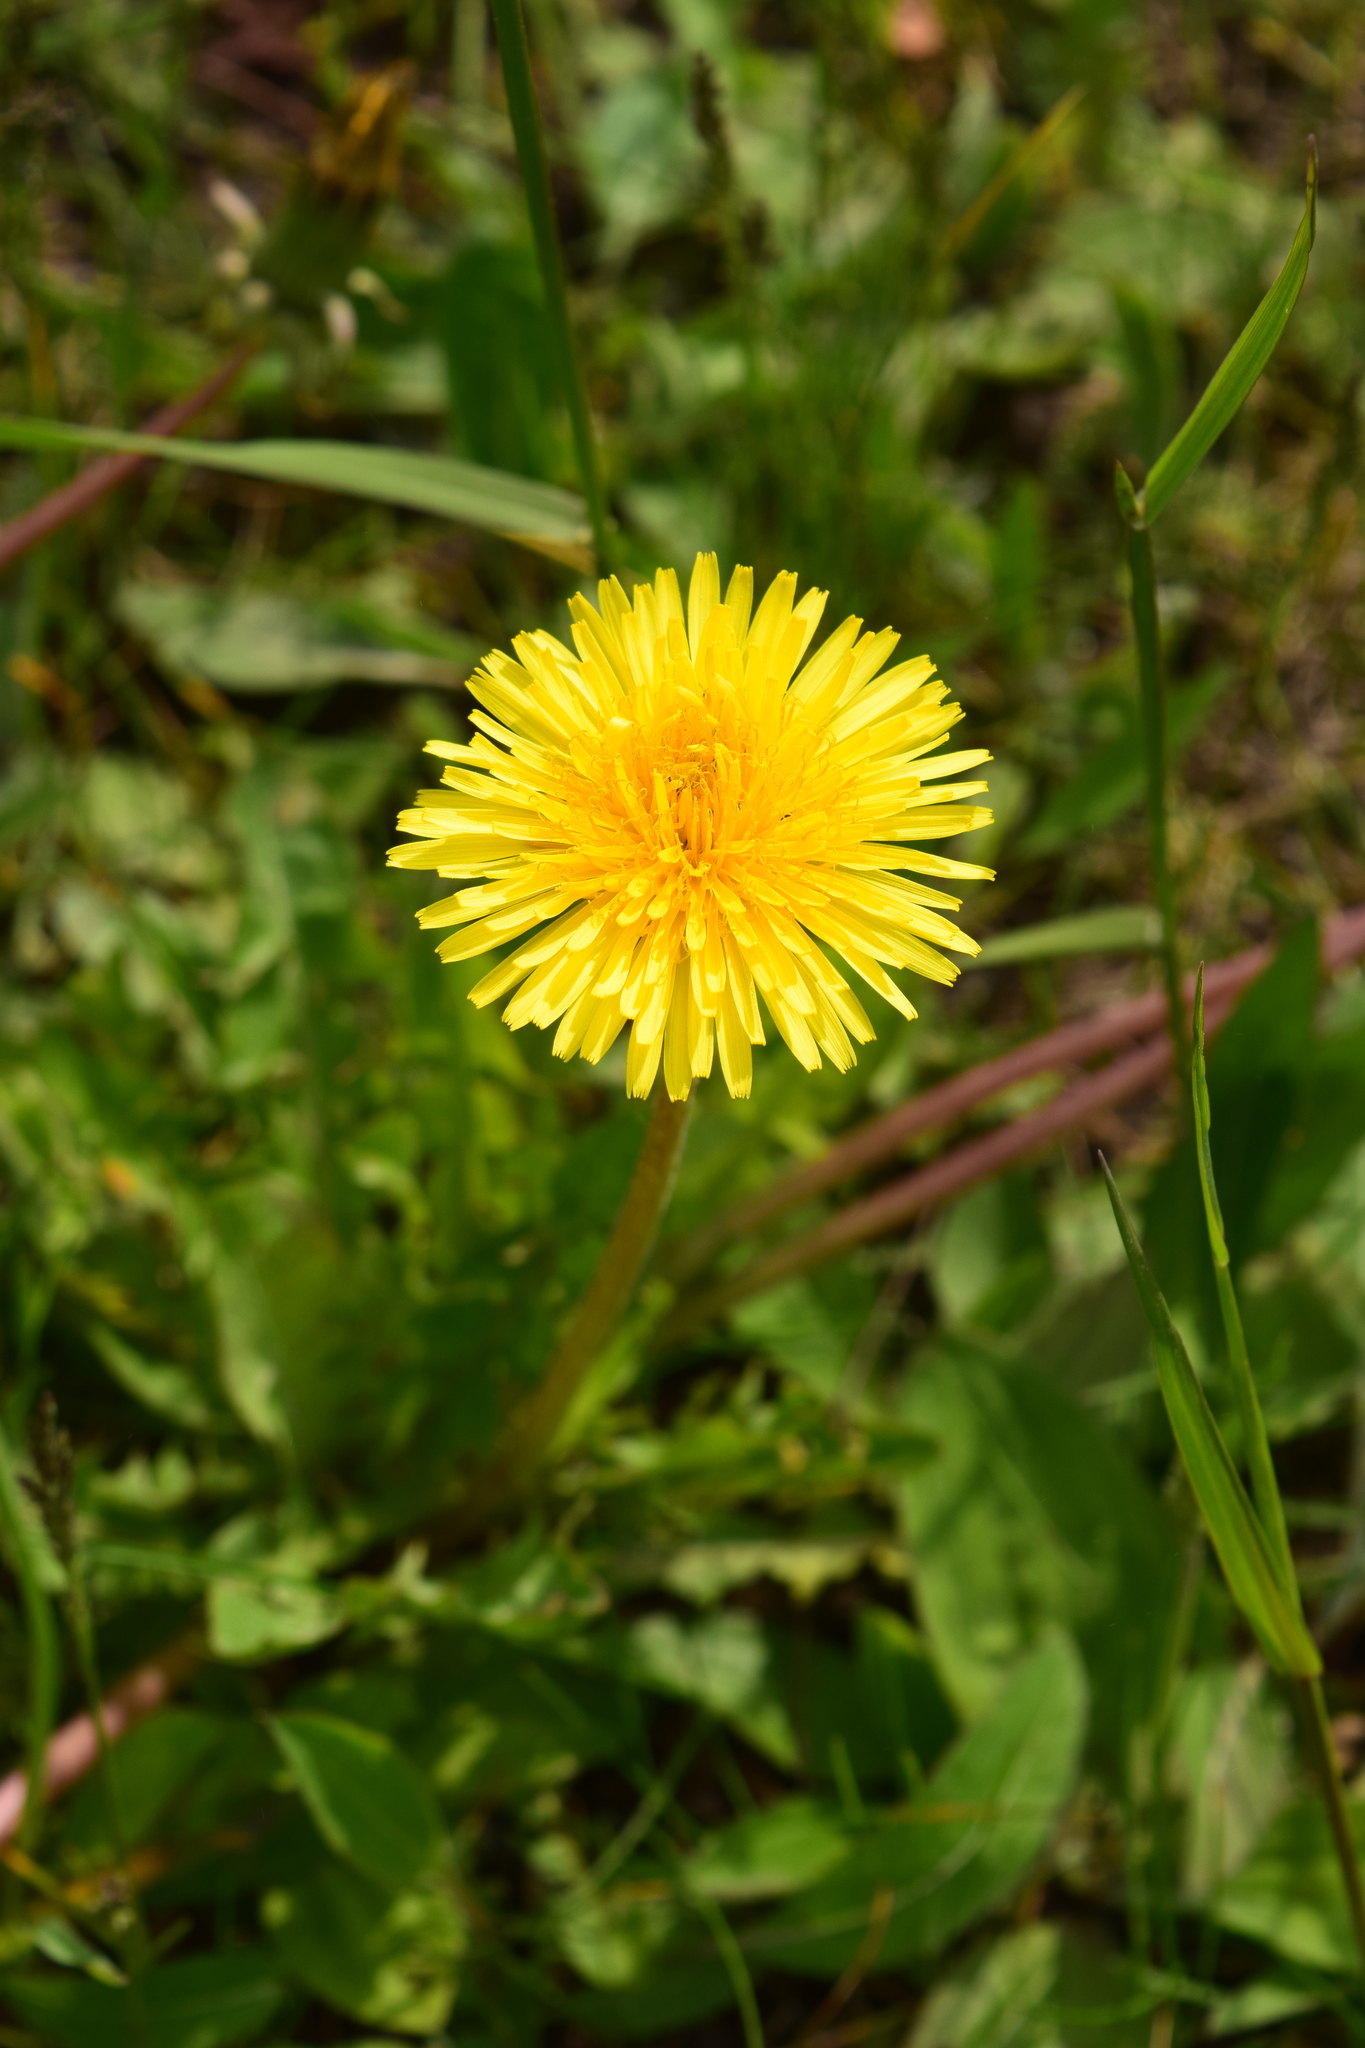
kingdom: Plantae
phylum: Tracheophyta
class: Magnoliopsida
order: Asterales
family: Asteraceae
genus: Taraxacum
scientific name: Taraxacum officinale
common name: Common dandelion
